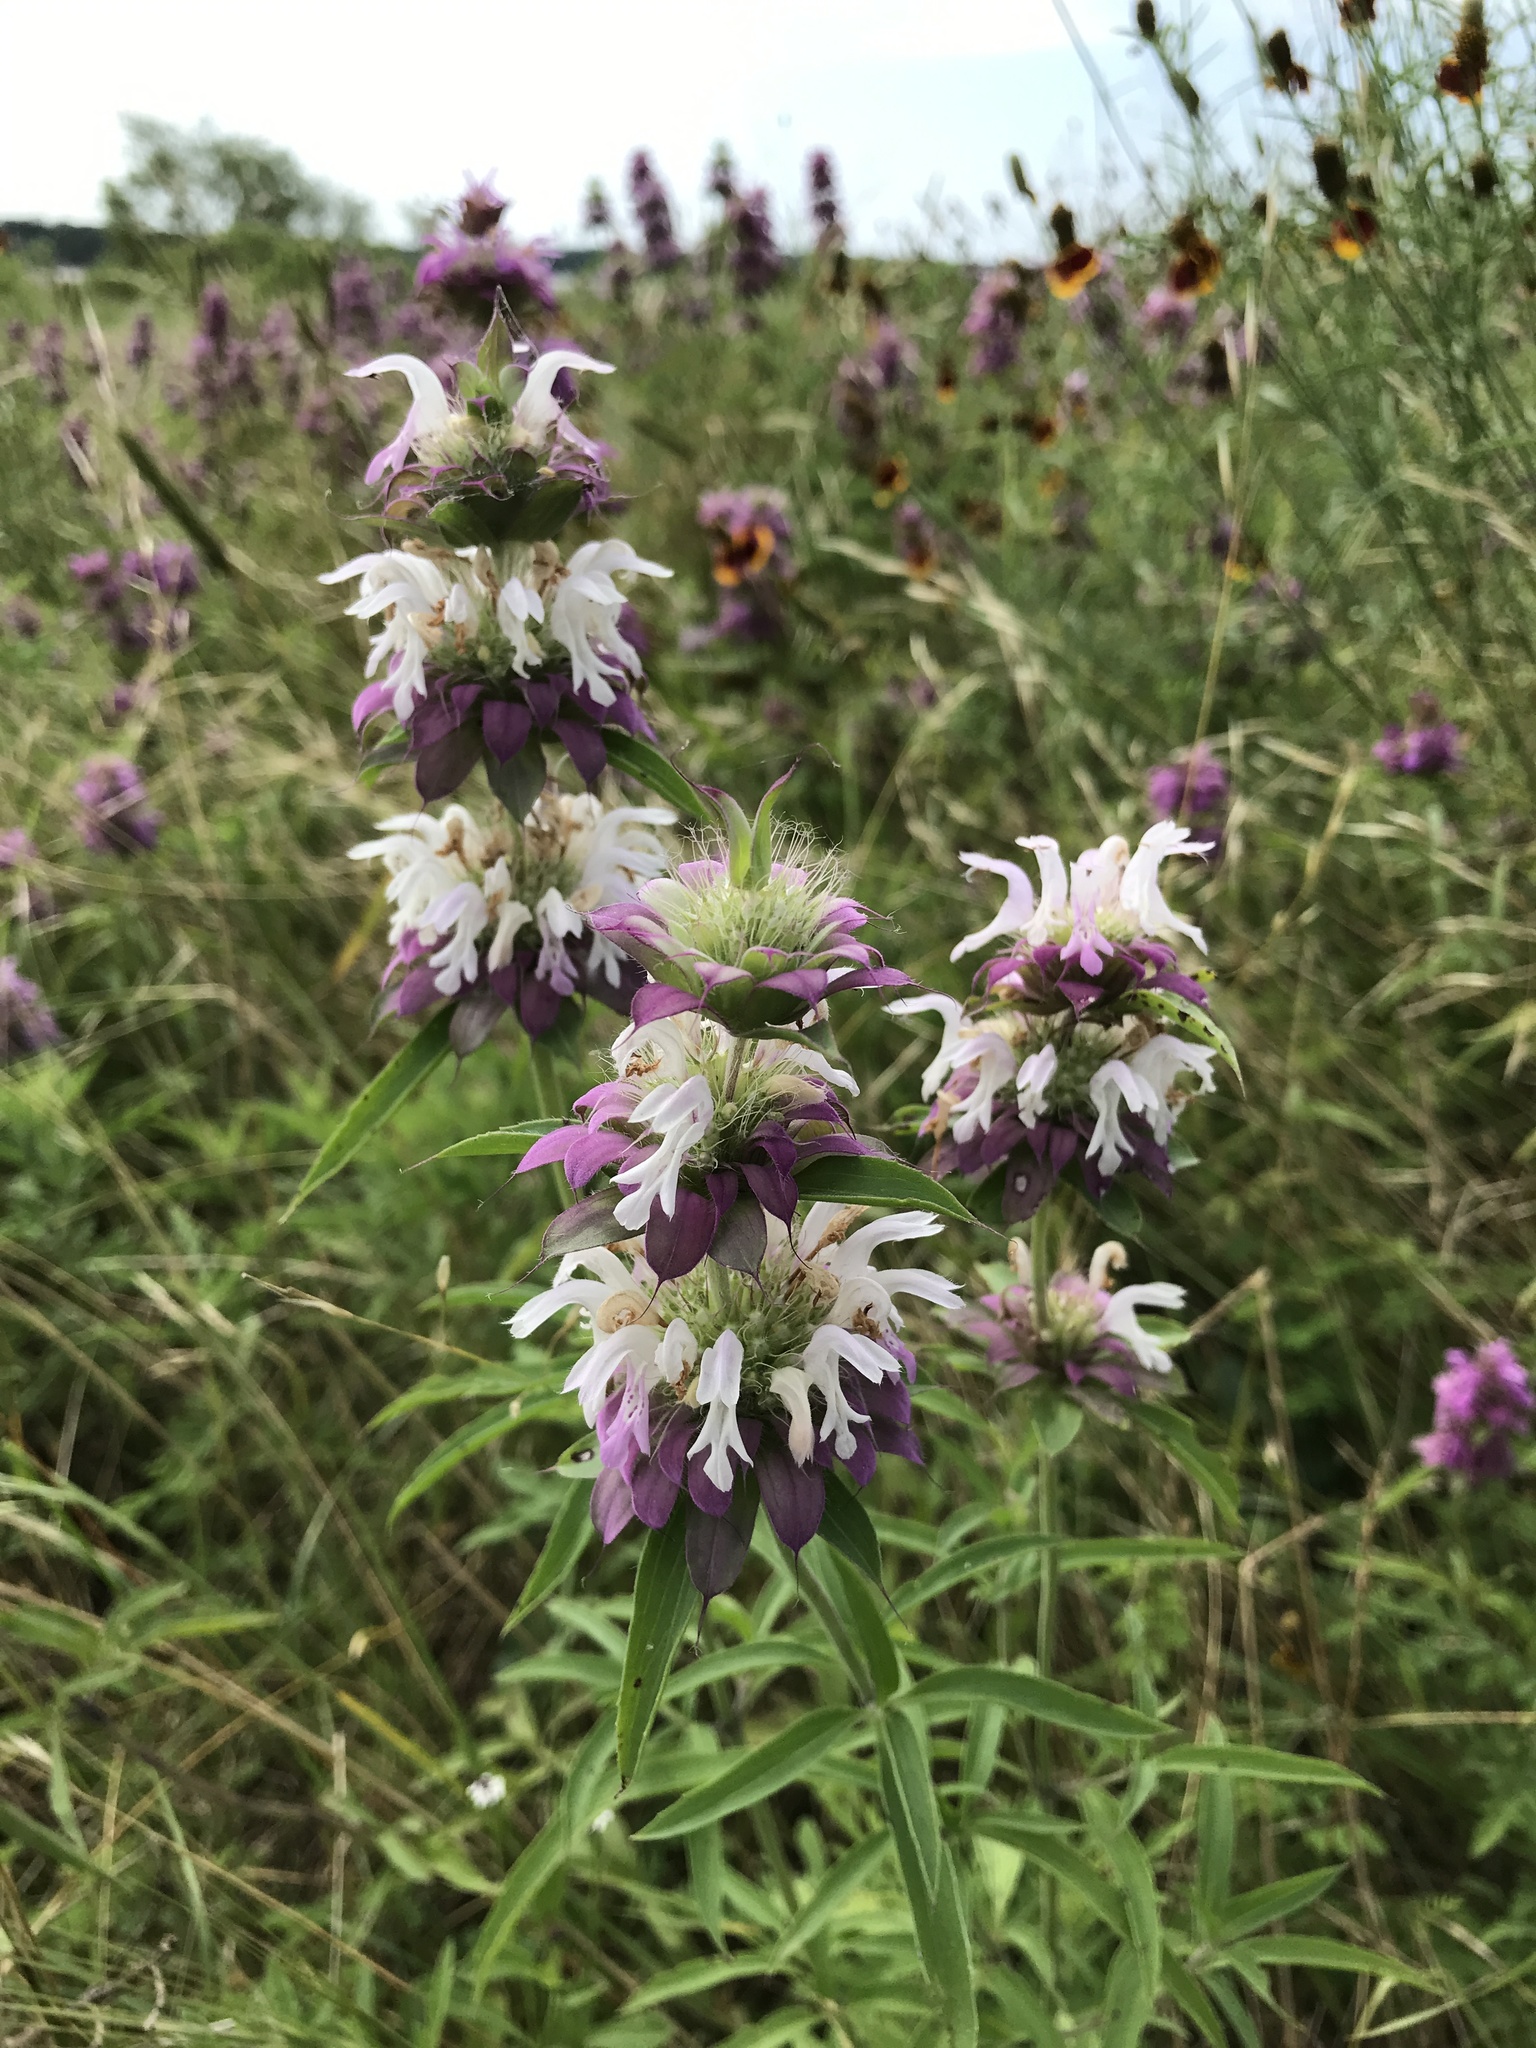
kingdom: Plantae
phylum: Tracheophyta
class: Magnoliopsida
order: Lamiales
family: Lamiaceae
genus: Monarda
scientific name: Monarda citriodora
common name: Lemon beebalm
